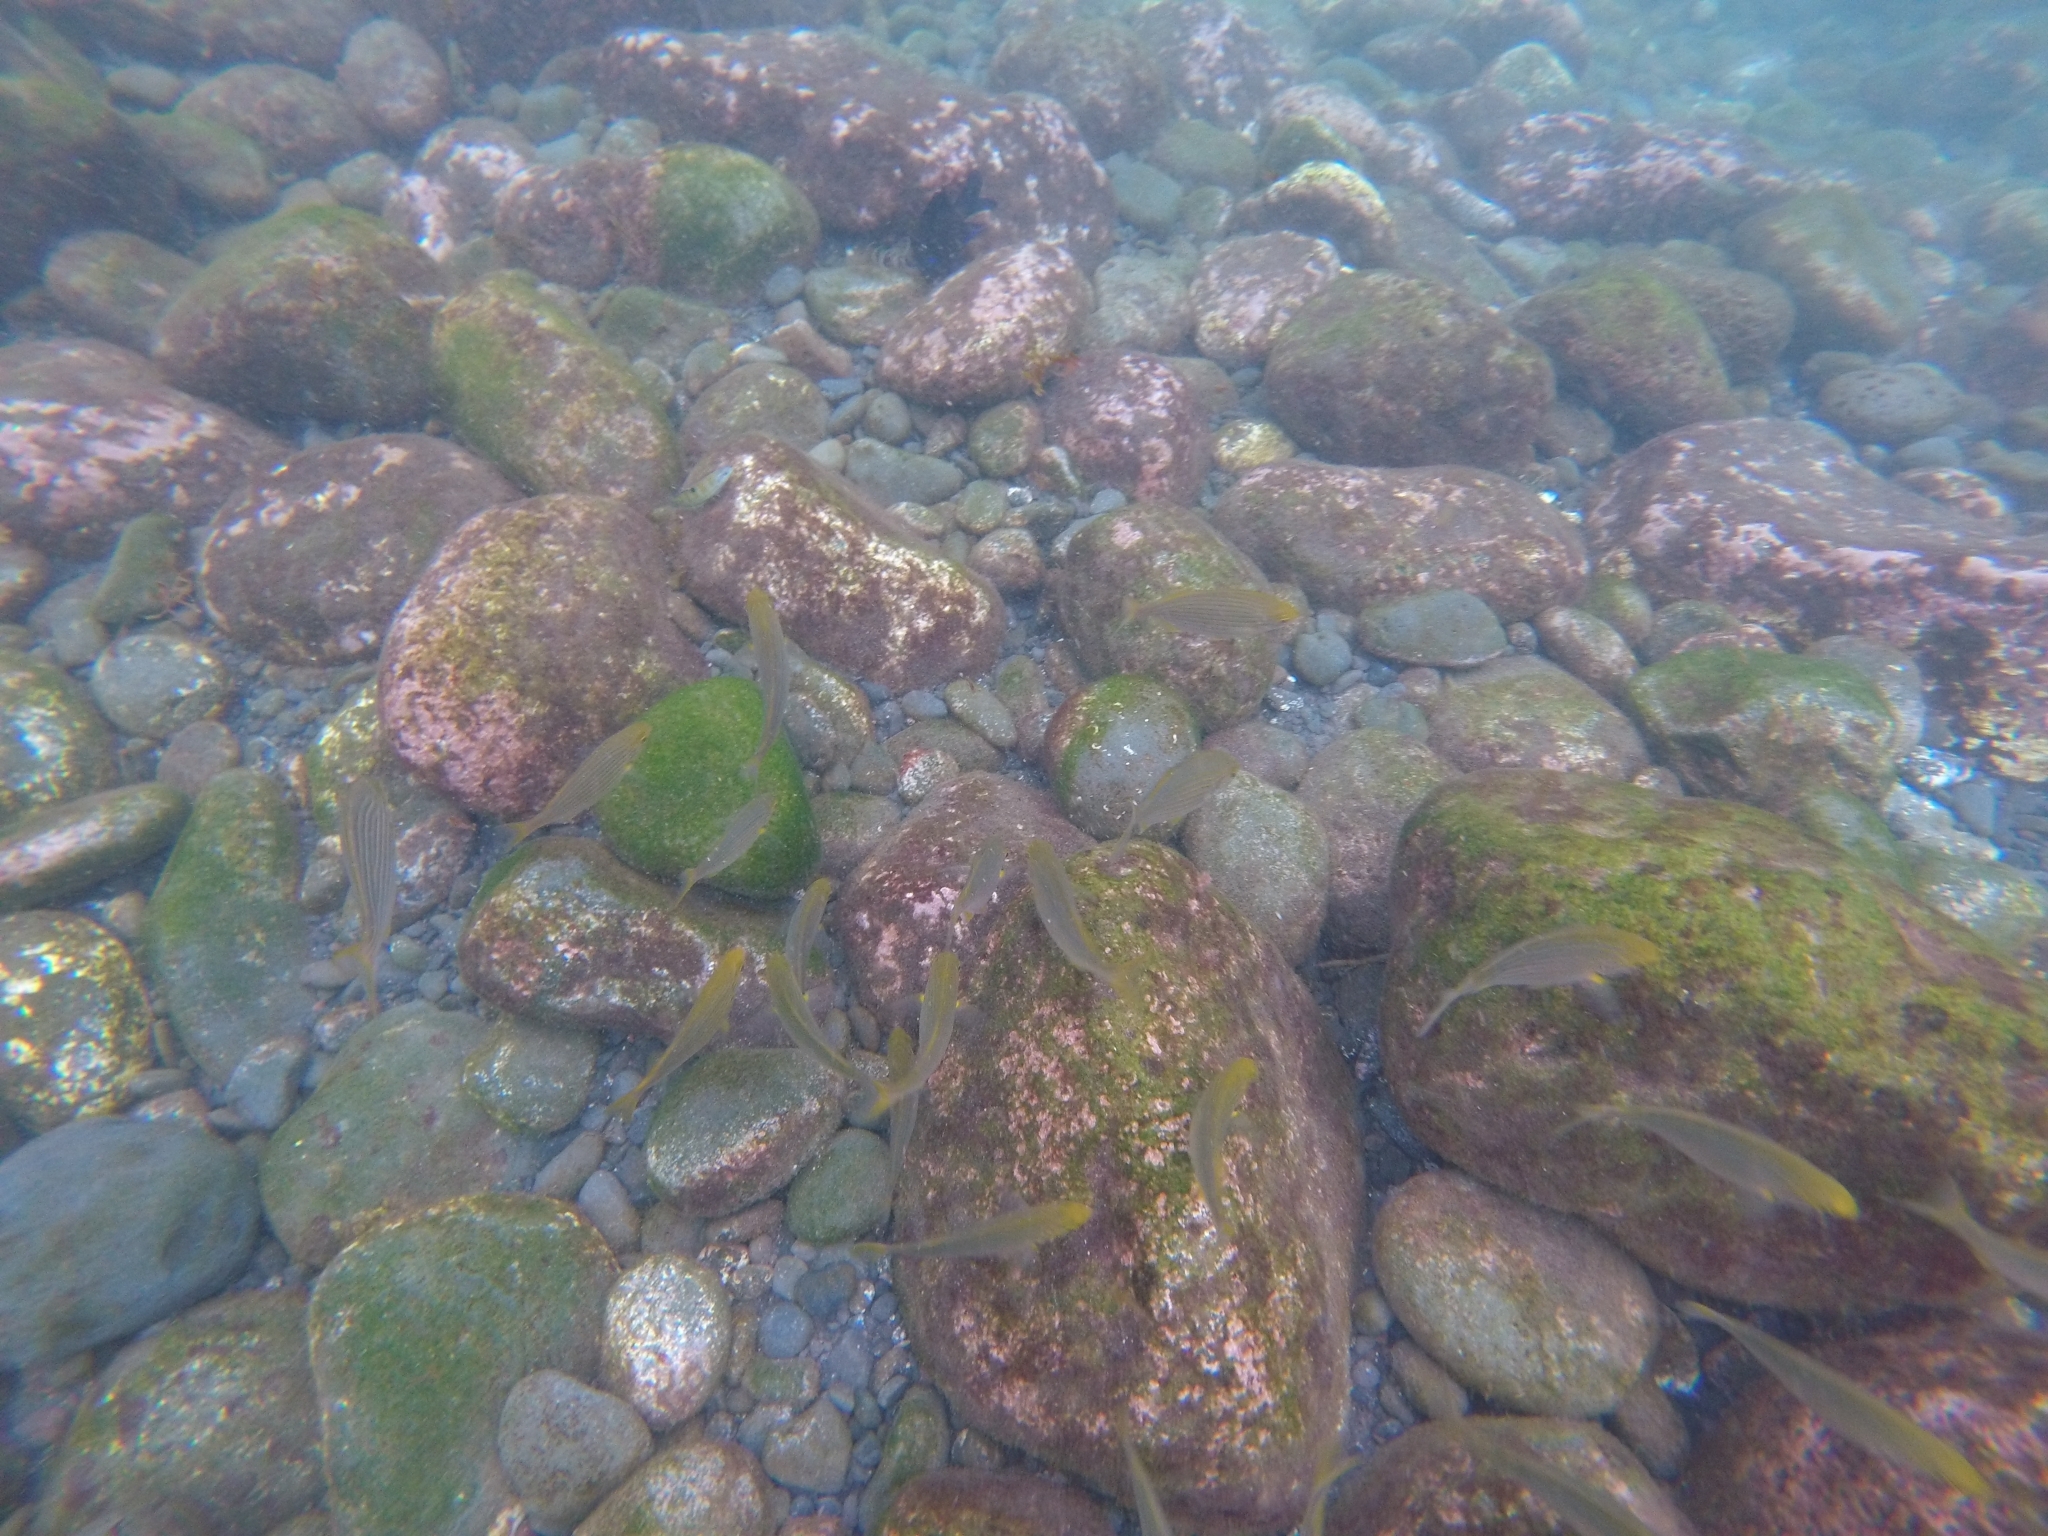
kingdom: Animalia
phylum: Chordata
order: Perciformes
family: Sparidae
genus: Sarpa
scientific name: Sarpa salpa
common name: Salema
